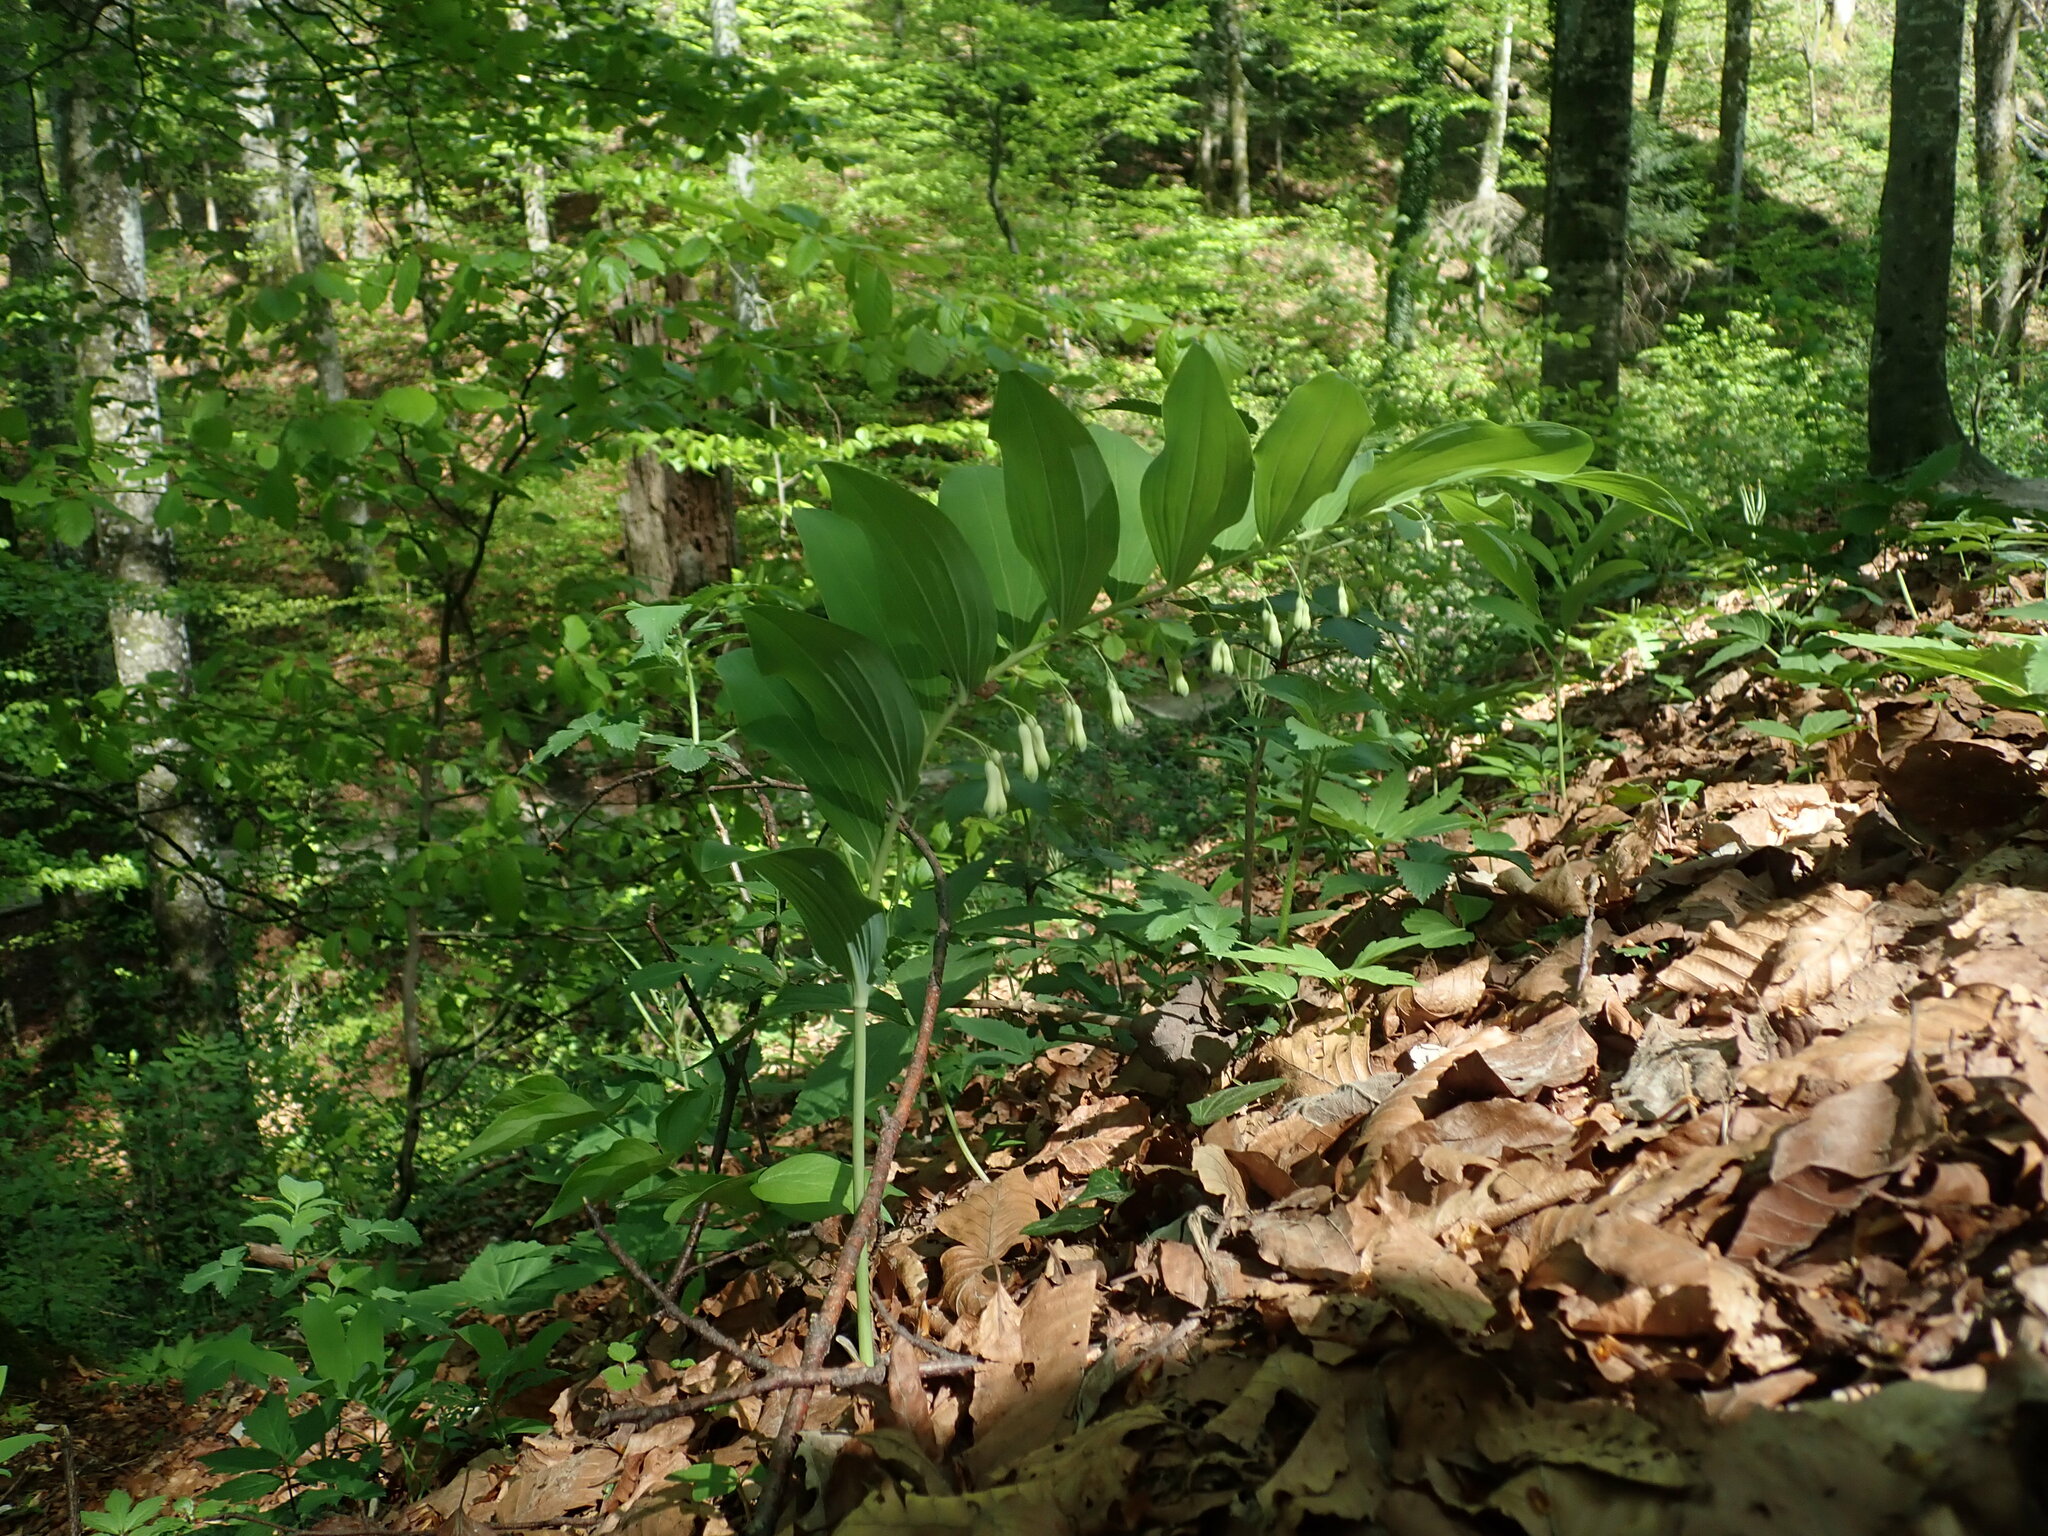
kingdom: Plantae
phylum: Tracheophyta
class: Liliopsida
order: Asparagales
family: Asparagaceae
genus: Polygonatum
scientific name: Polygonatum multiflorum
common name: Solomon's-seal
